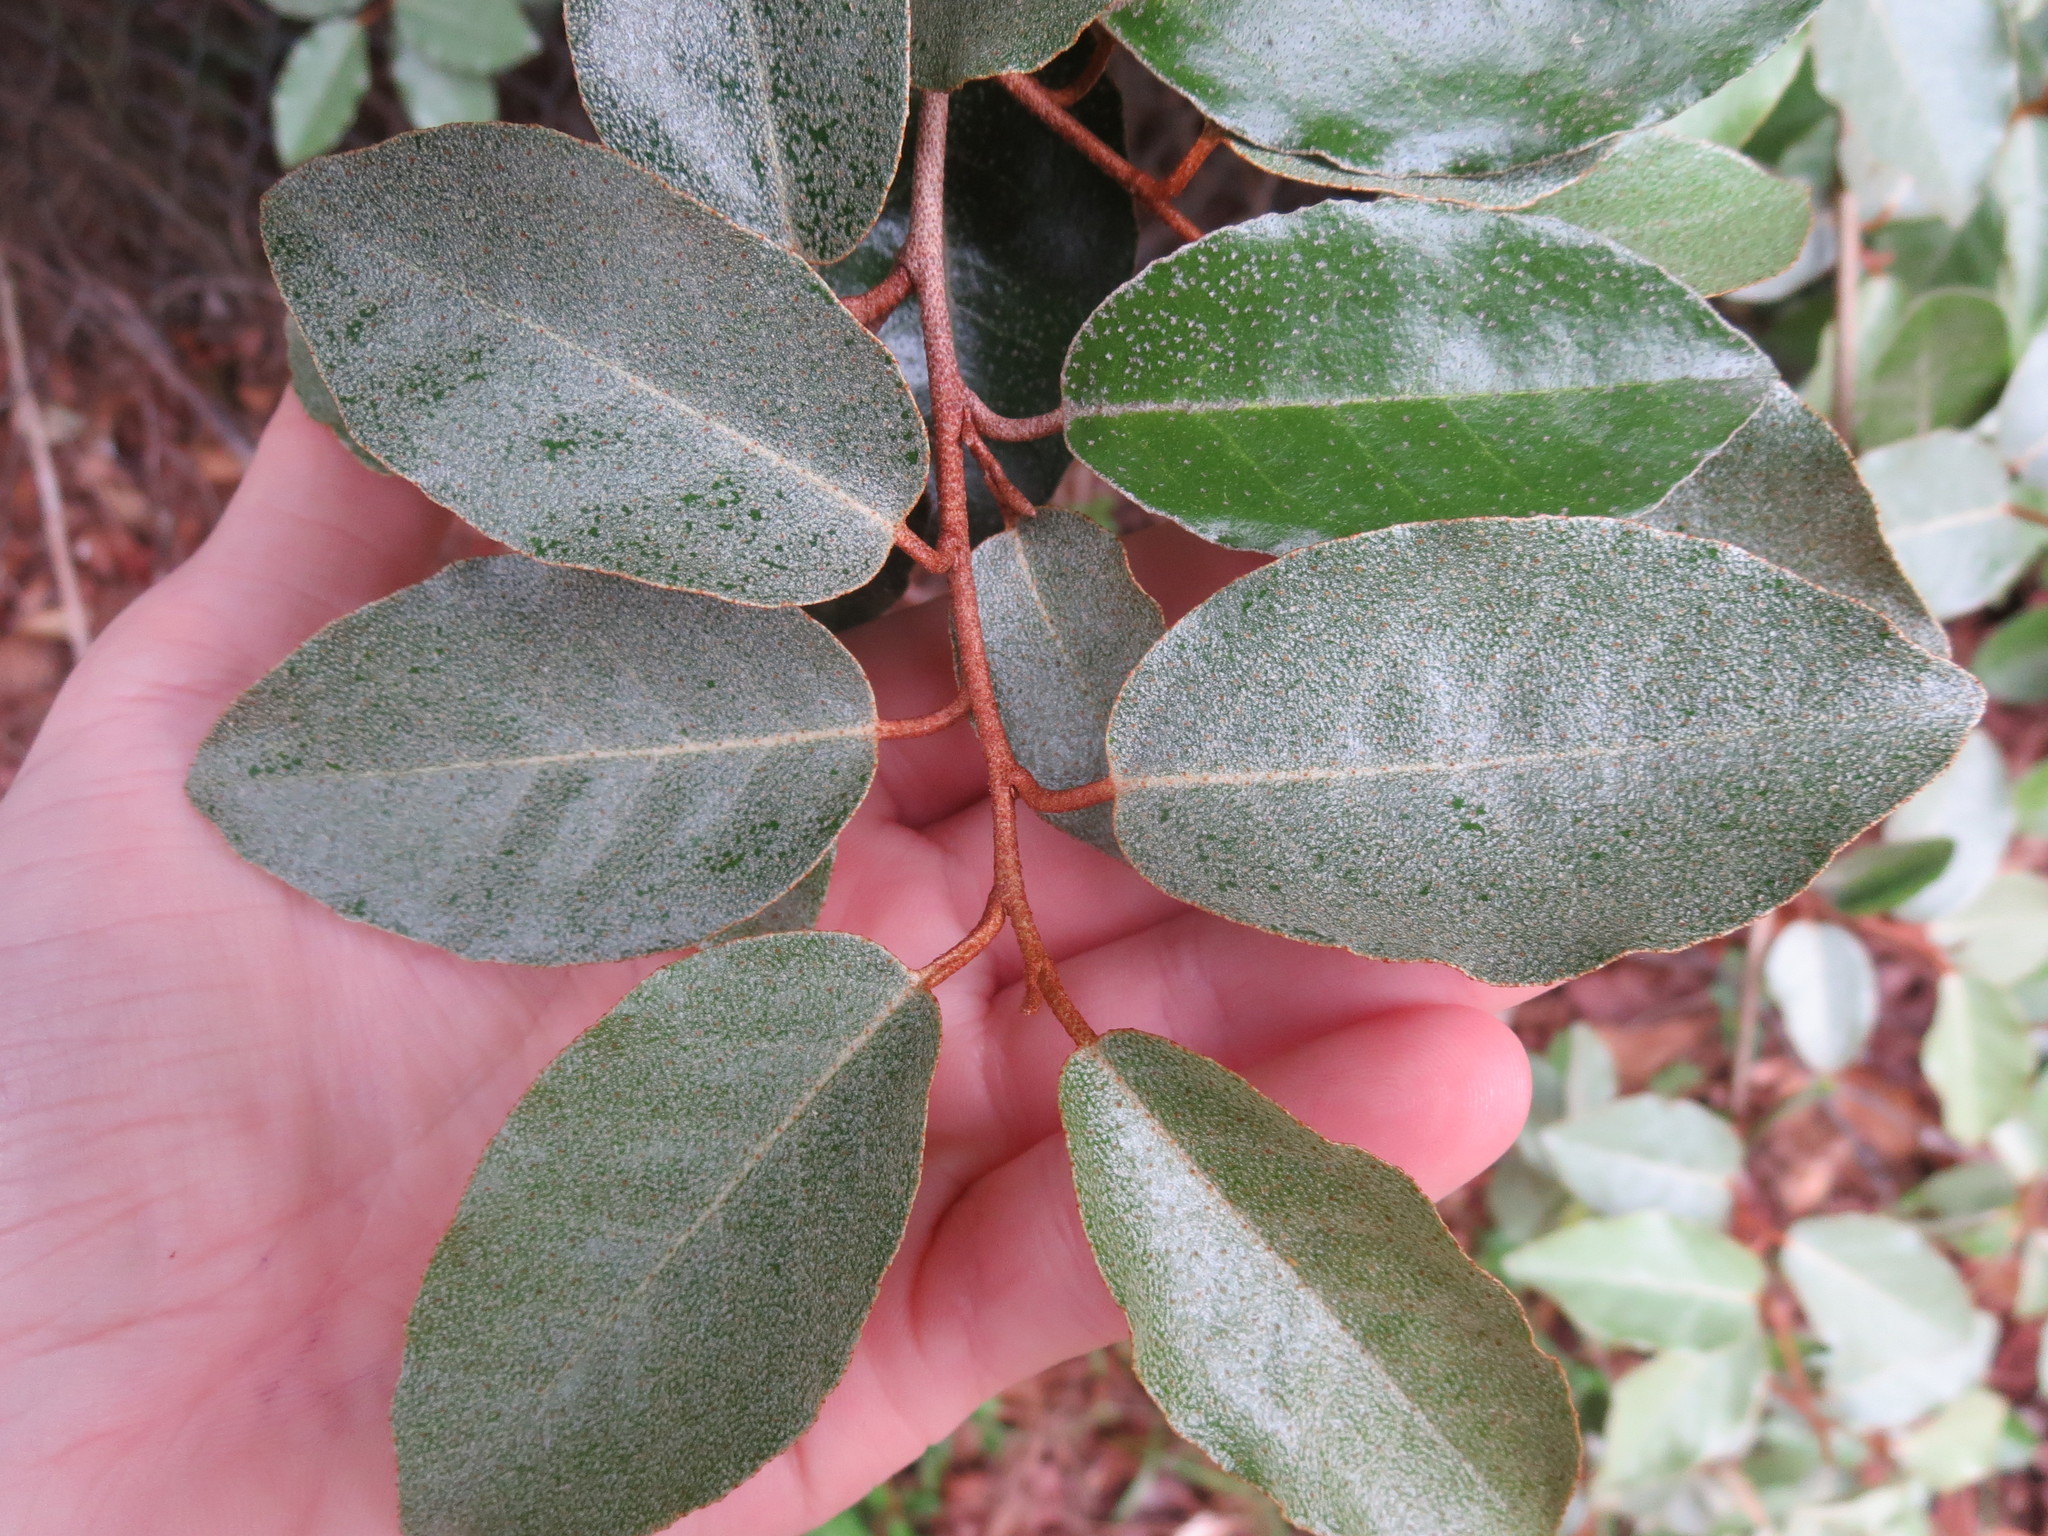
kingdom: Plantae
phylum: Tracheophyta
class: Magnoliopsida
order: Rosales
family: Elaeagnaceae
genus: Elaeagnus
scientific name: Elaeagnus pungens
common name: Spiny oleaster
